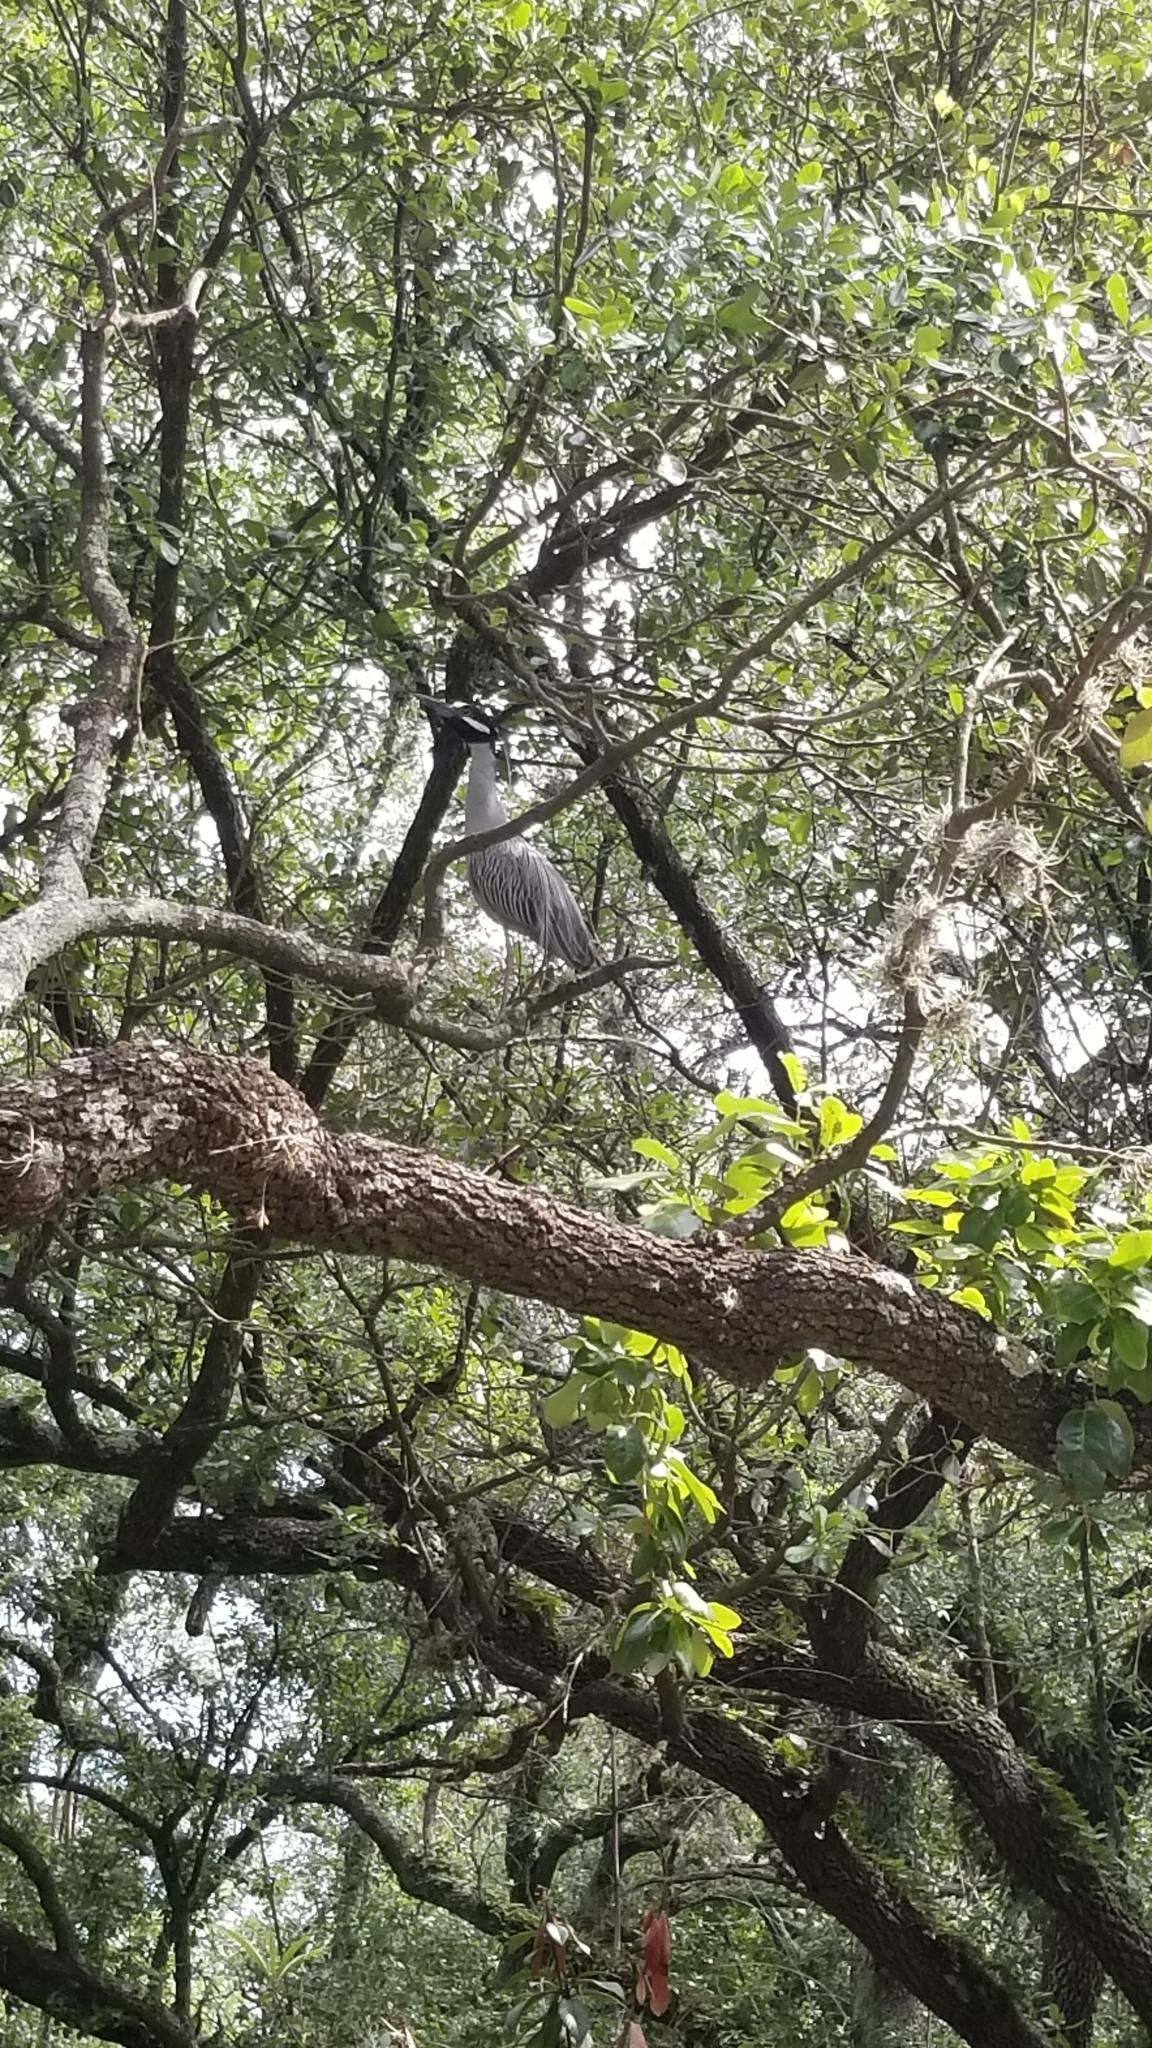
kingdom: Animalia
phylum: Chordata
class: Aves
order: Pelecaniformes
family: Ardeidae
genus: Nyctanassa
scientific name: Nyctanassa violacea
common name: Yellow-crowned night heron
